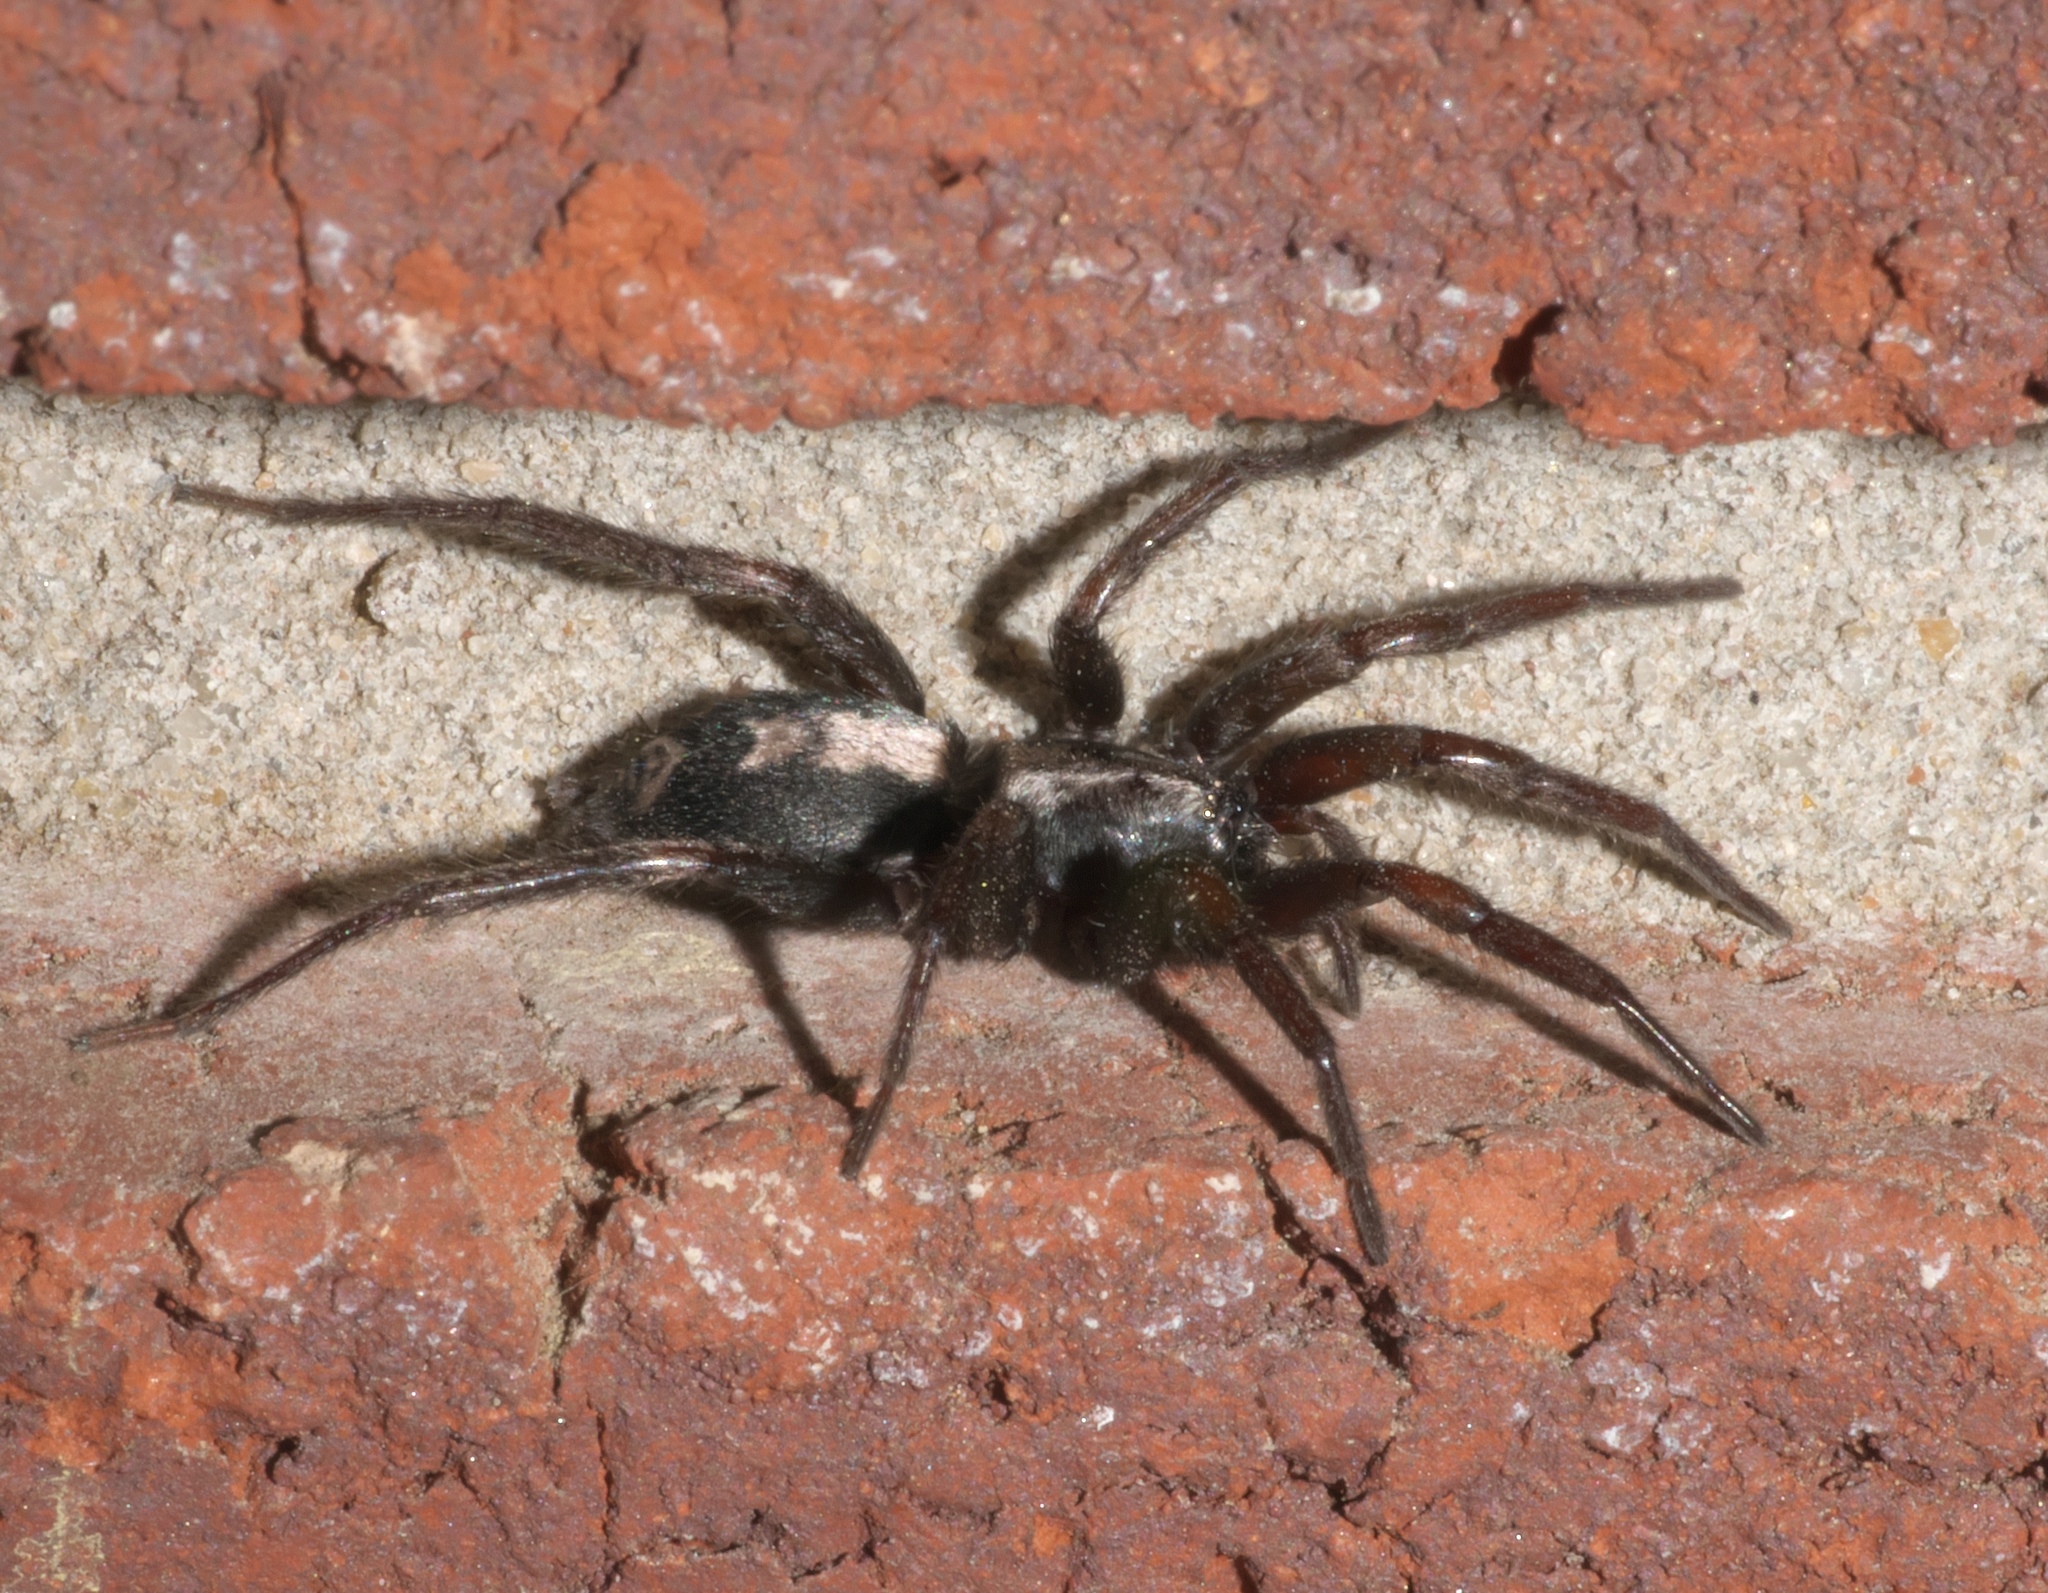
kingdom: Animalia
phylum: Arthropoda
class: Arachnida
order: Araneae
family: Gnaphosidae
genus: Herpyllus
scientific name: Herpyllus ecclesiasticus
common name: Eastern parson spider
